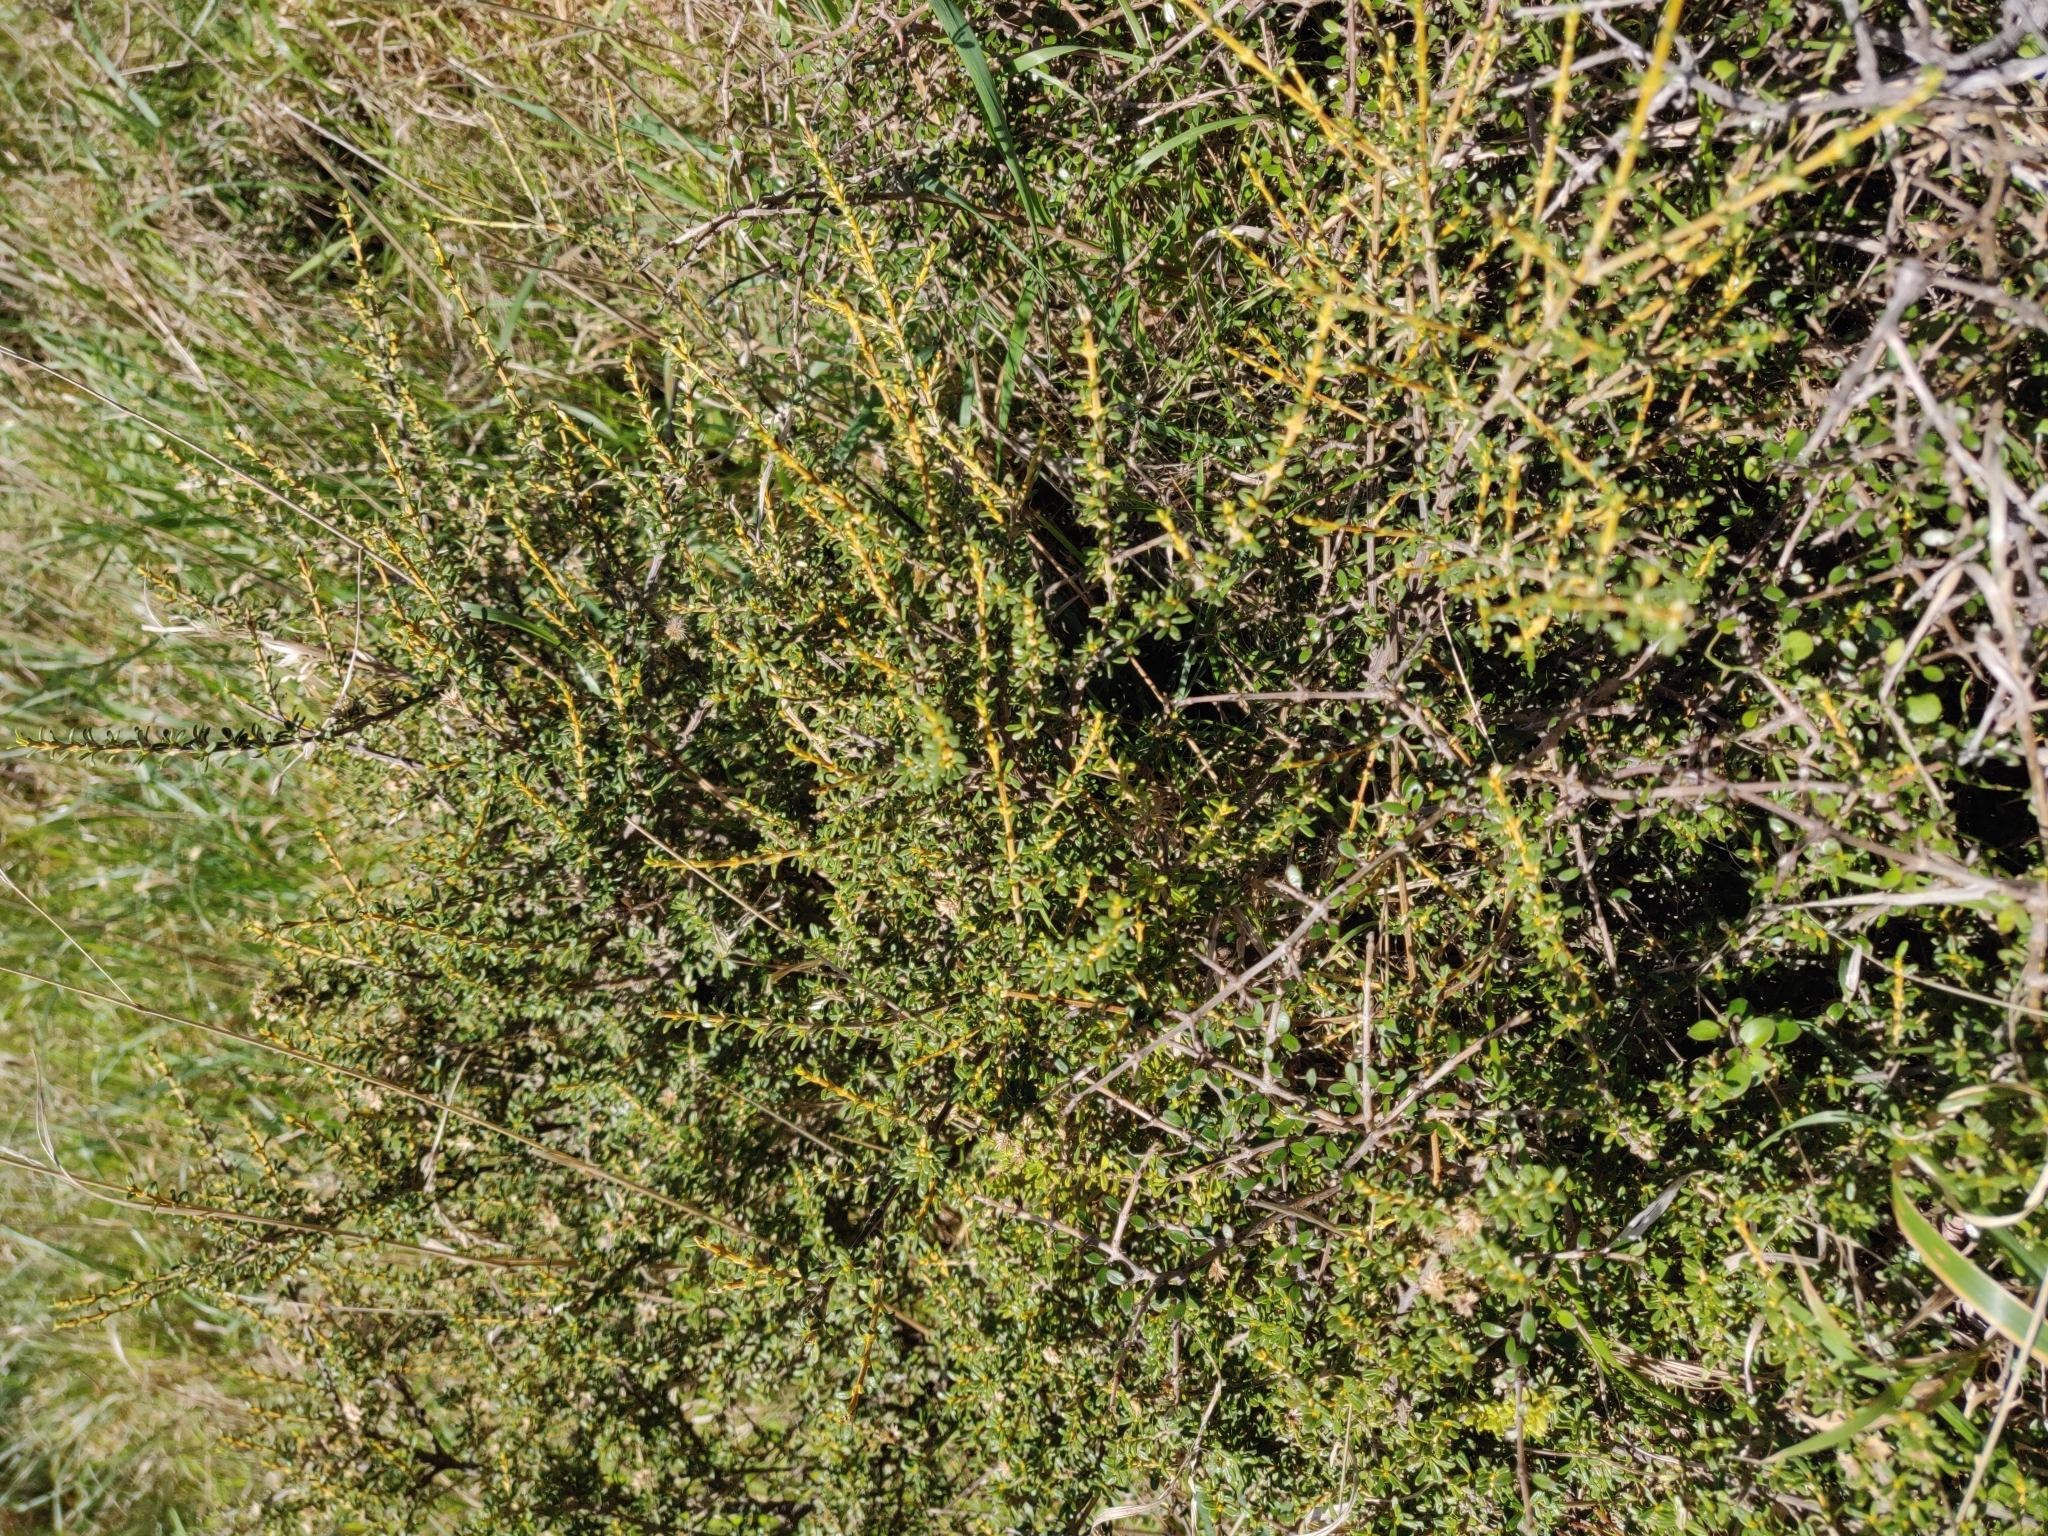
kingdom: Plantae
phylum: Tracheophyta
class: Magnoliopsida
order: Asterales
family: Asteraceae
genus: Olearia
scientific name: Olearia solandri
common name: Coastal daisybush
